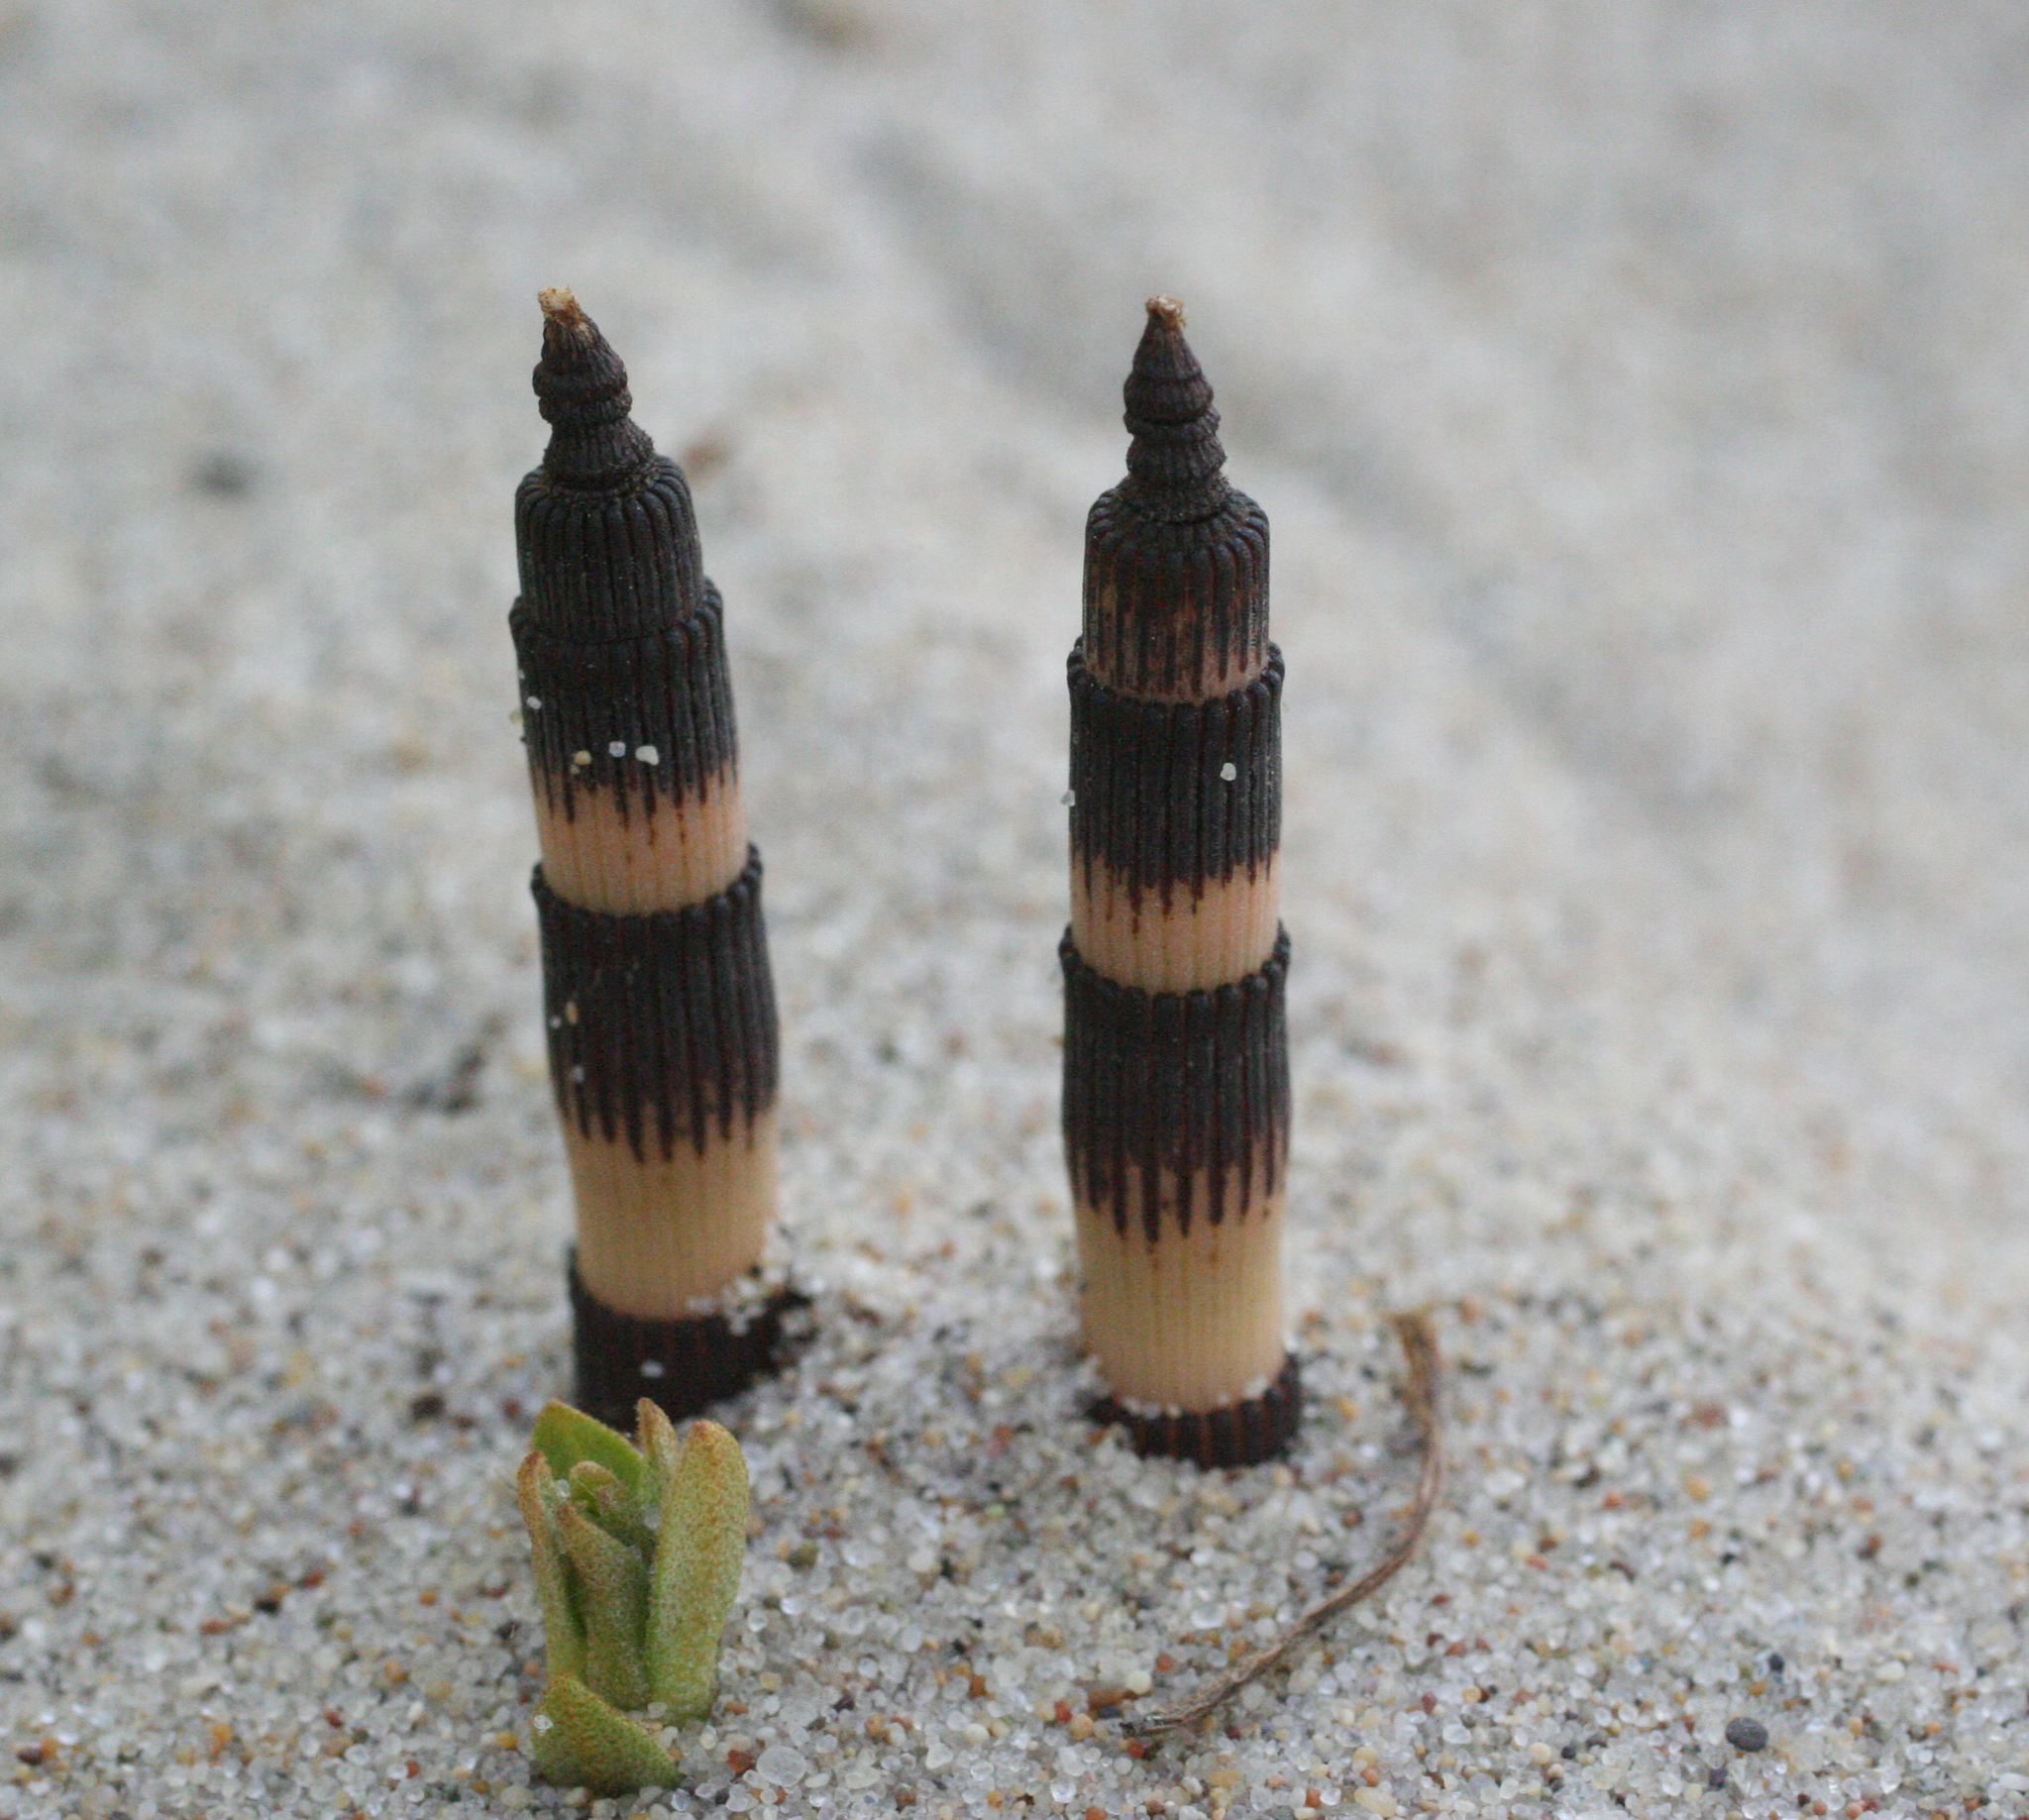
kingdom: Plantae
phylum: Tracheophyta
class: Polypodiopsida
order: Equisetales
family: Equisetaceae
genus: Equisetum
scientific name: Equisetum hyemale
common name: Rough horsetail
